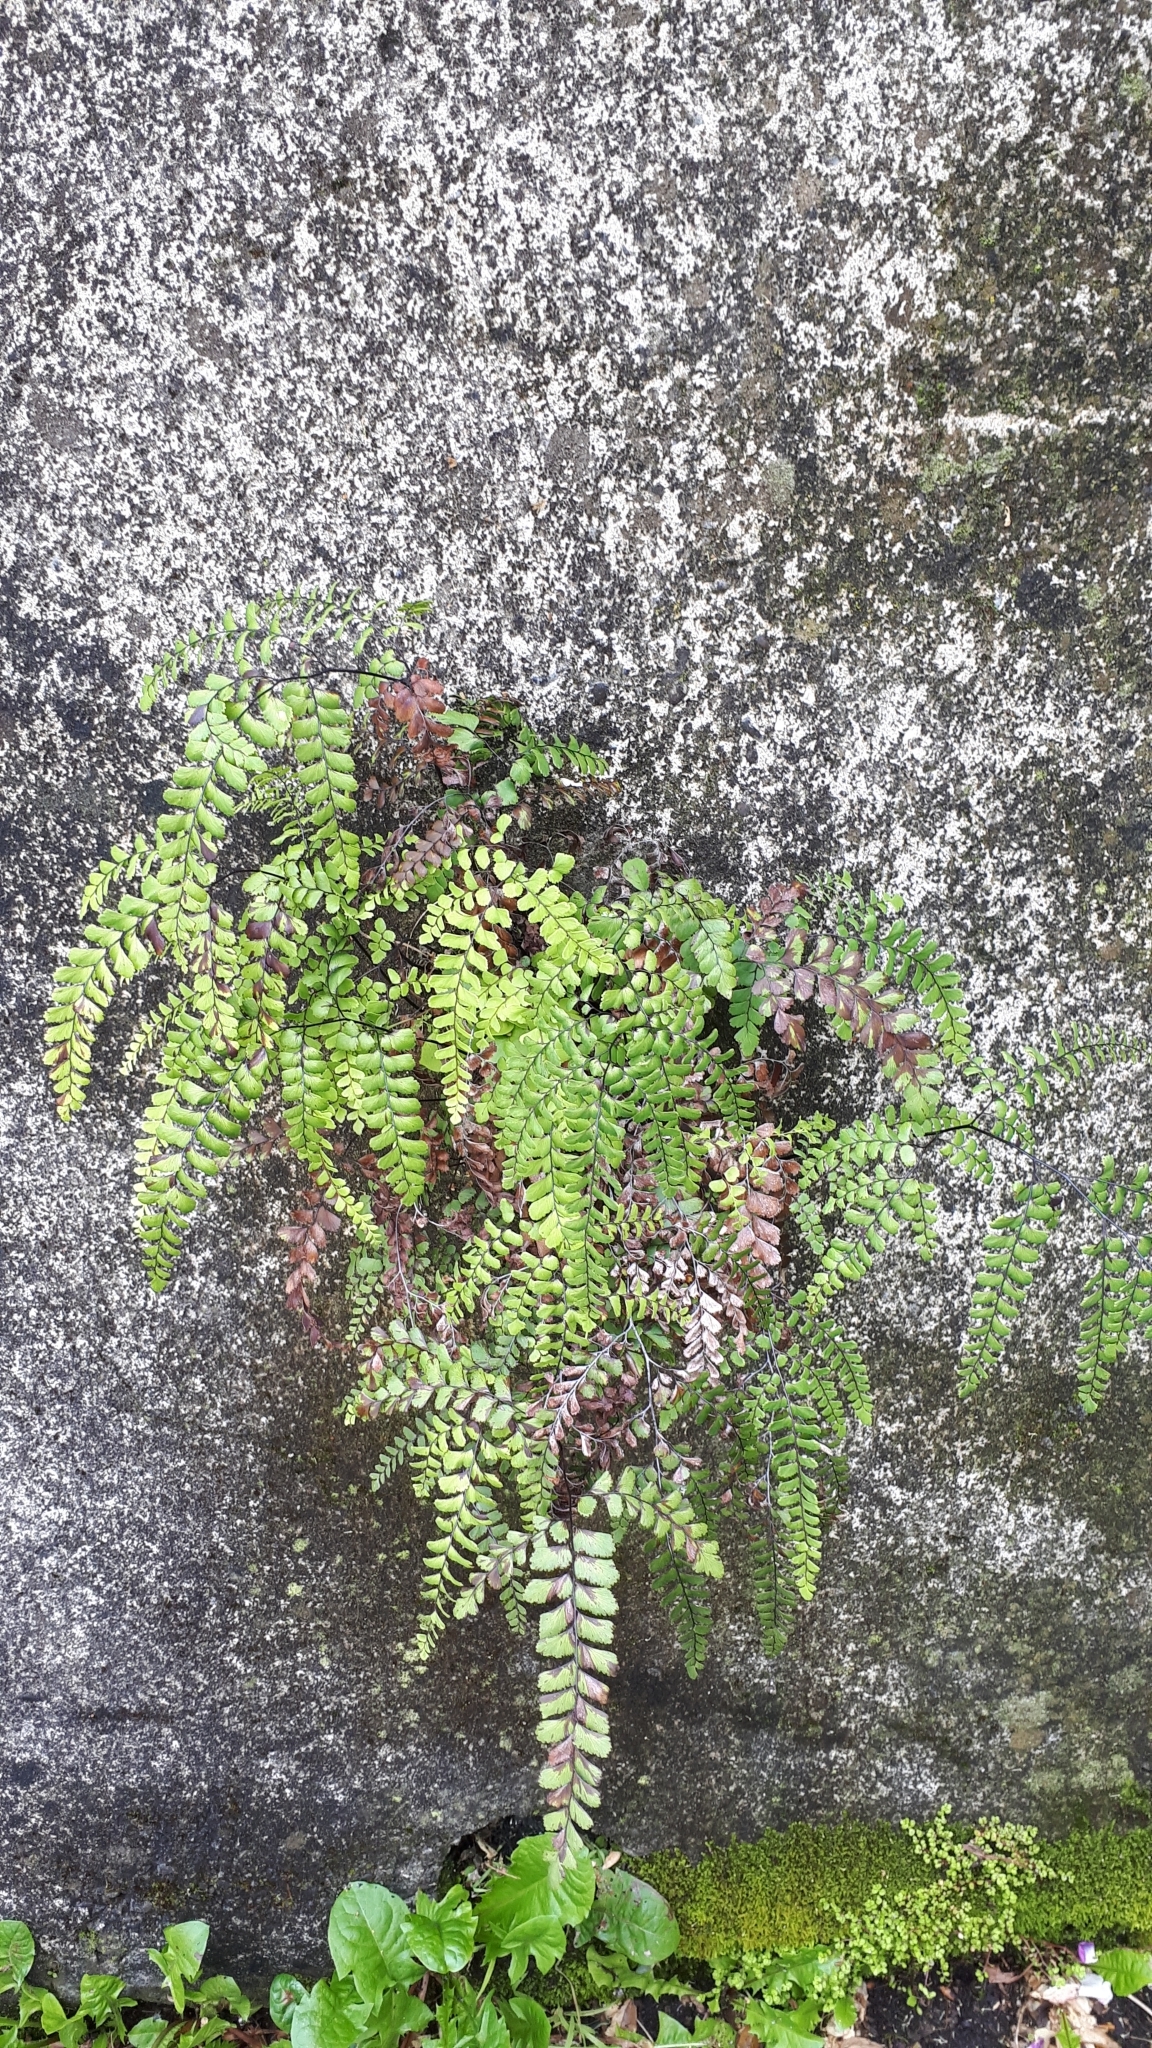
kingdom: Plantae
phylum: Tracheophyta
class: Polypodiopsida
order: Polypodiales
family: Pteridaceae
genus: Adiantum
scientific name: Adiantum cunninghamii
